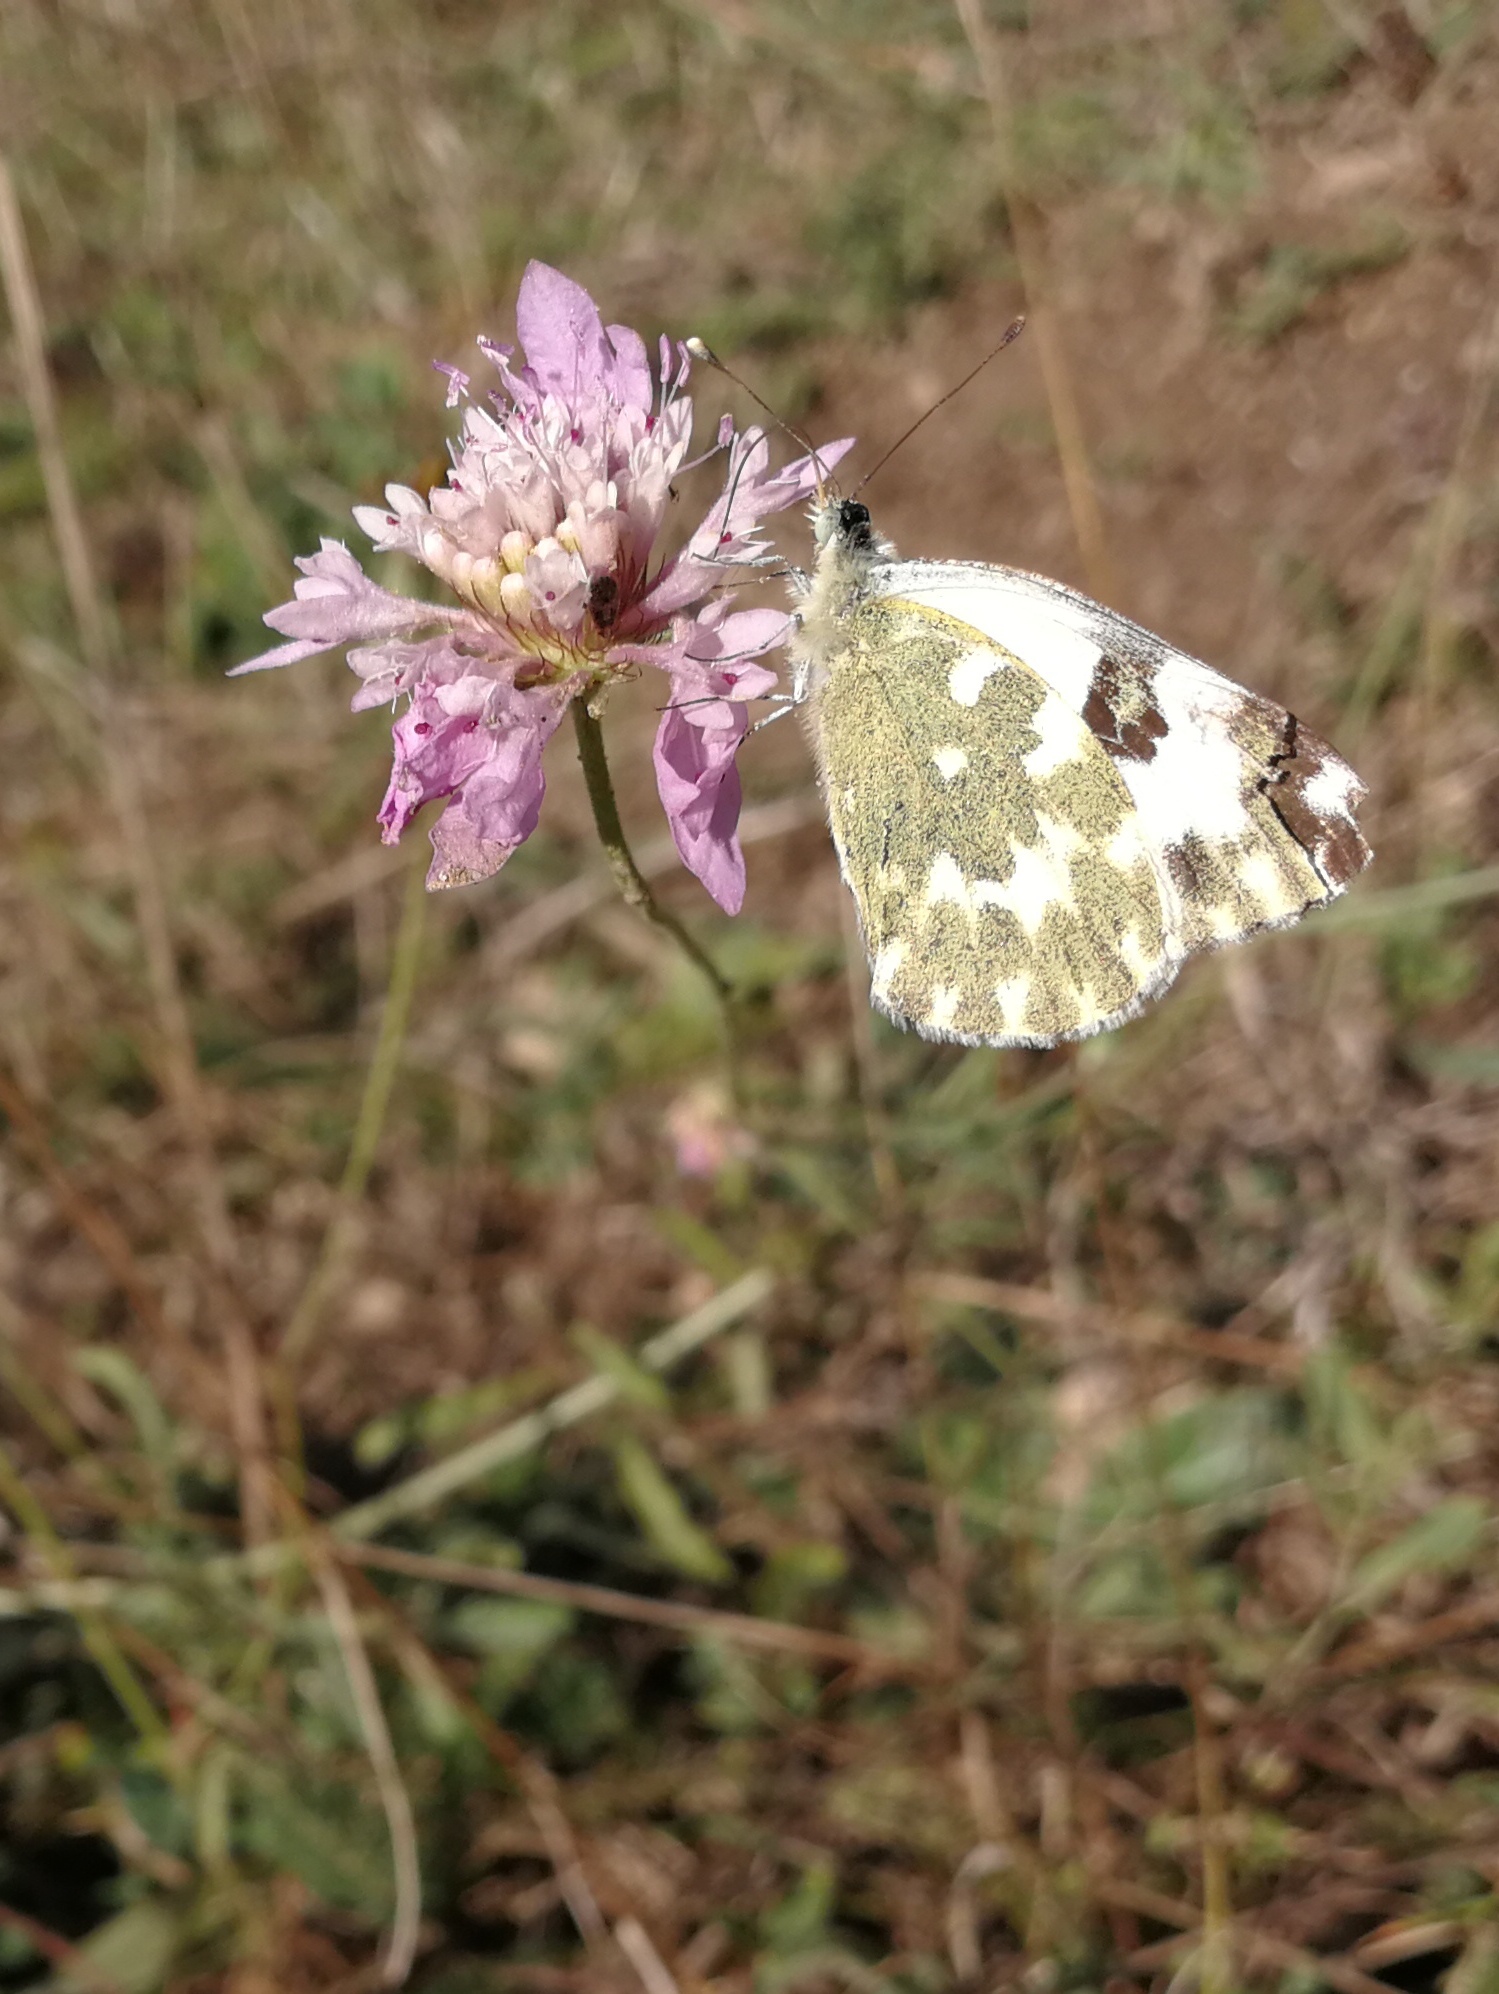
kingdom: Animalia
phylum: Arthropoda
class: Insecta
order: Lepidoptera
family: Pieridae
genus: Pontia
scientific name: Pontia daplidice
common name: Bath white
